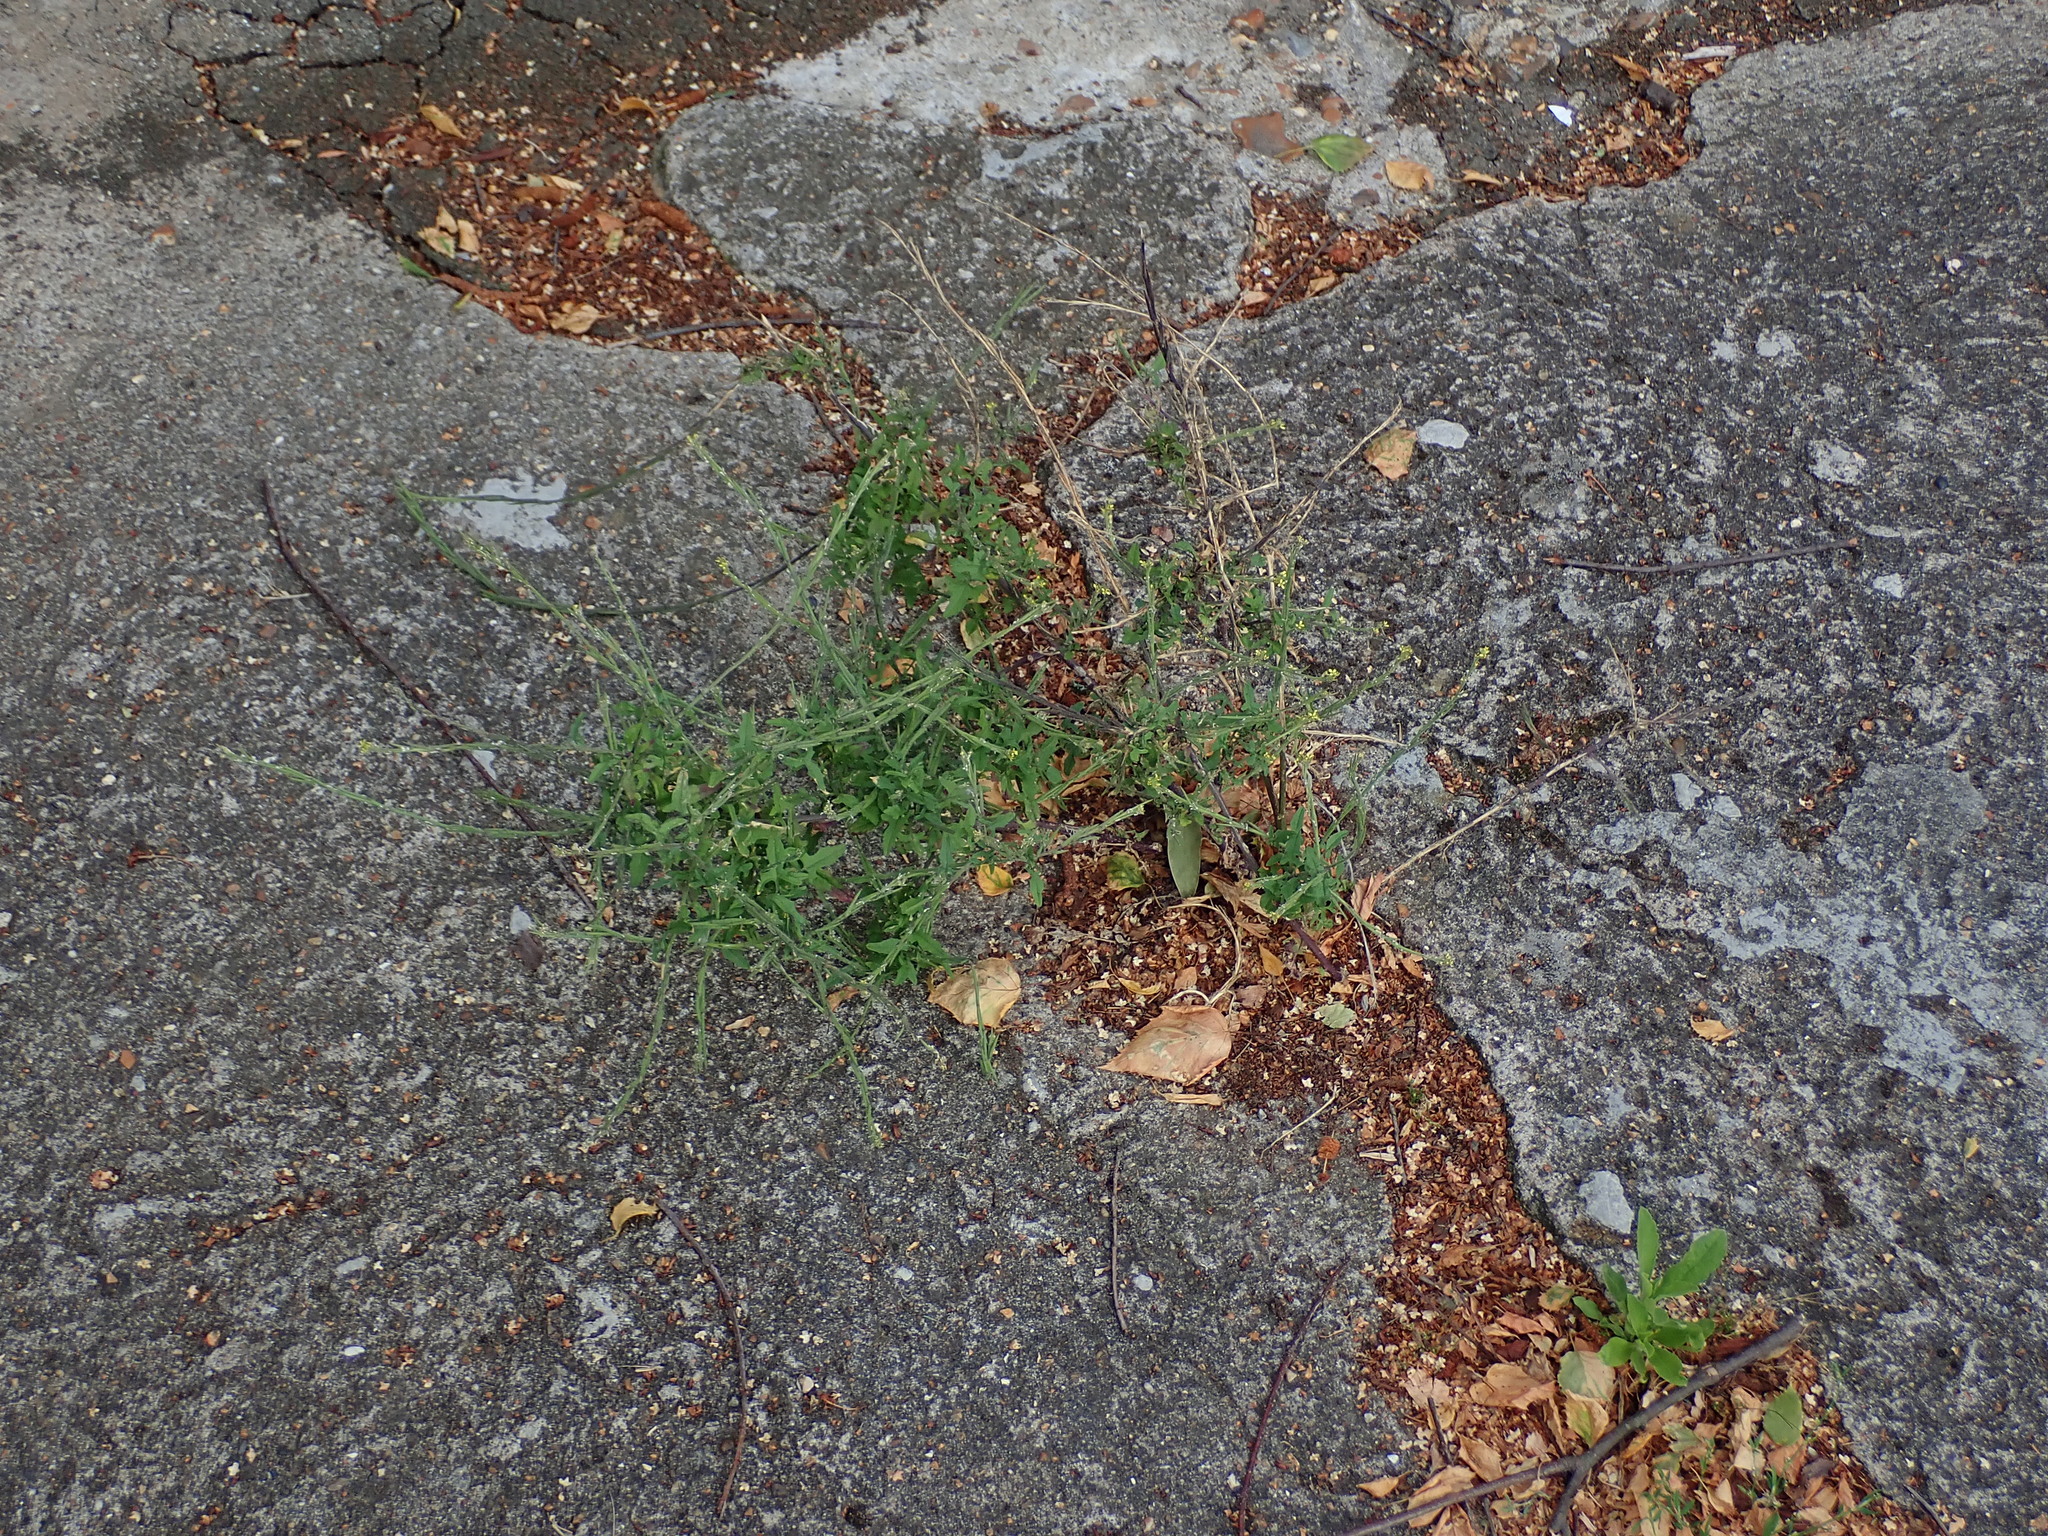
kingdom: Plantae
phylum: Tracheophyta
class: Magnoliopsida
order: Brassicales
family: Brassicaceae
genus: Sisymbrium
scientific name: Sisymbrium officinale
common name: Hedge mustard
